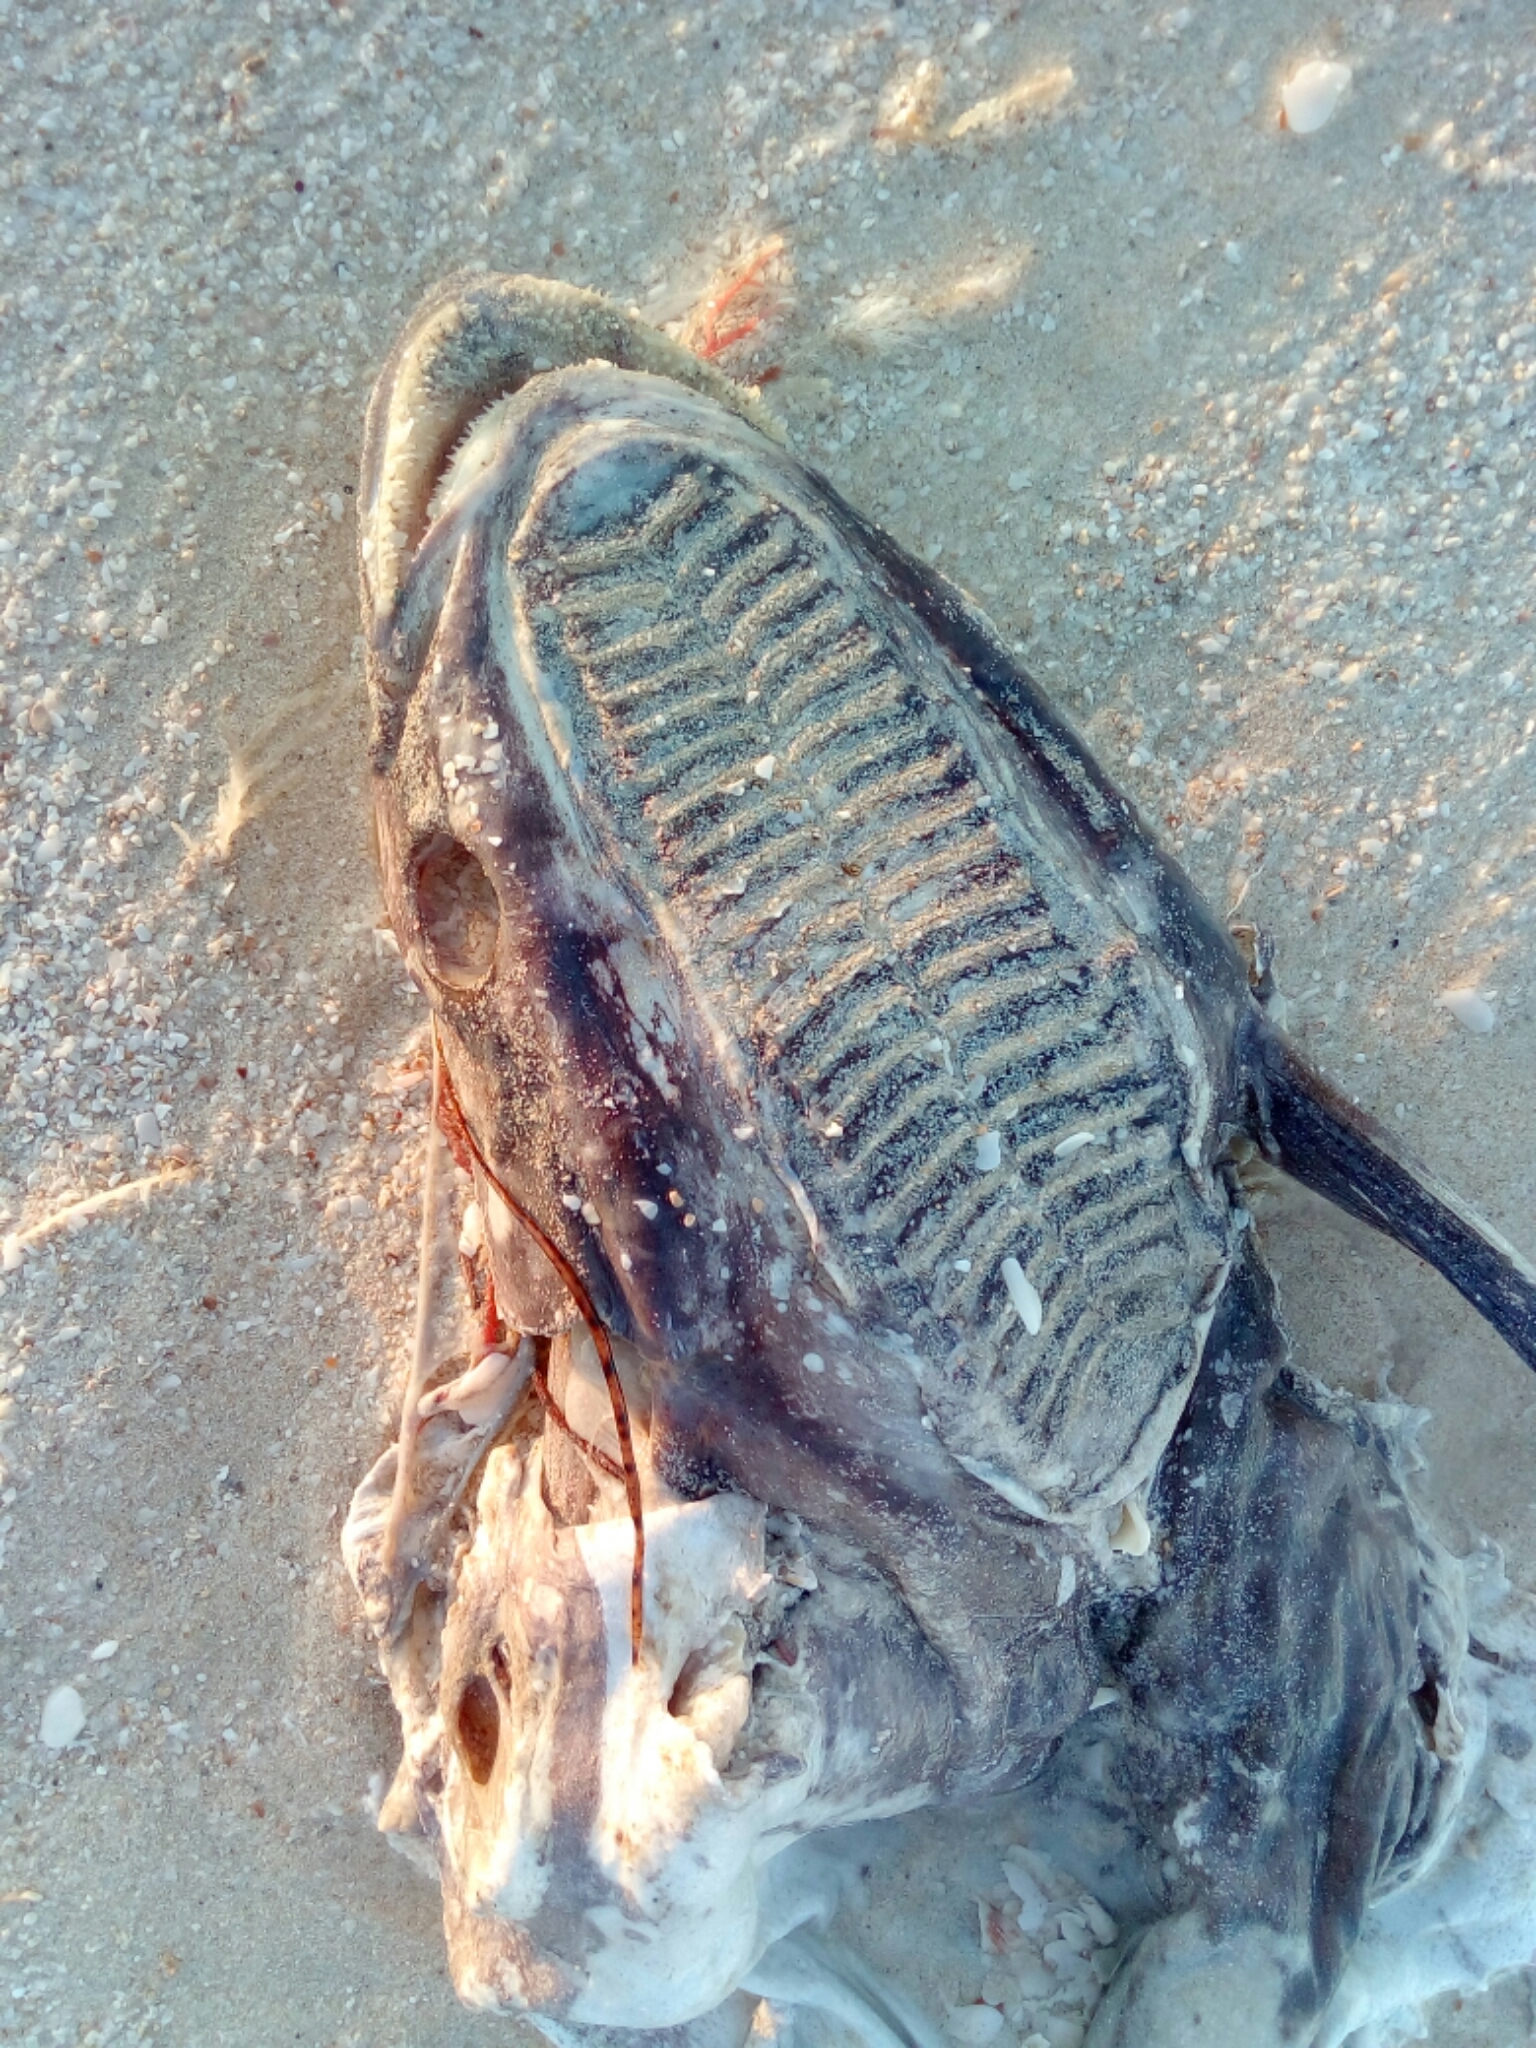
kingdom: Animalia
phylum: Chordata
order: Perciformes
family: Echeneidae
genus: Echeneis
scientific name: Echeneis naucrates
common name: Sharksucker
